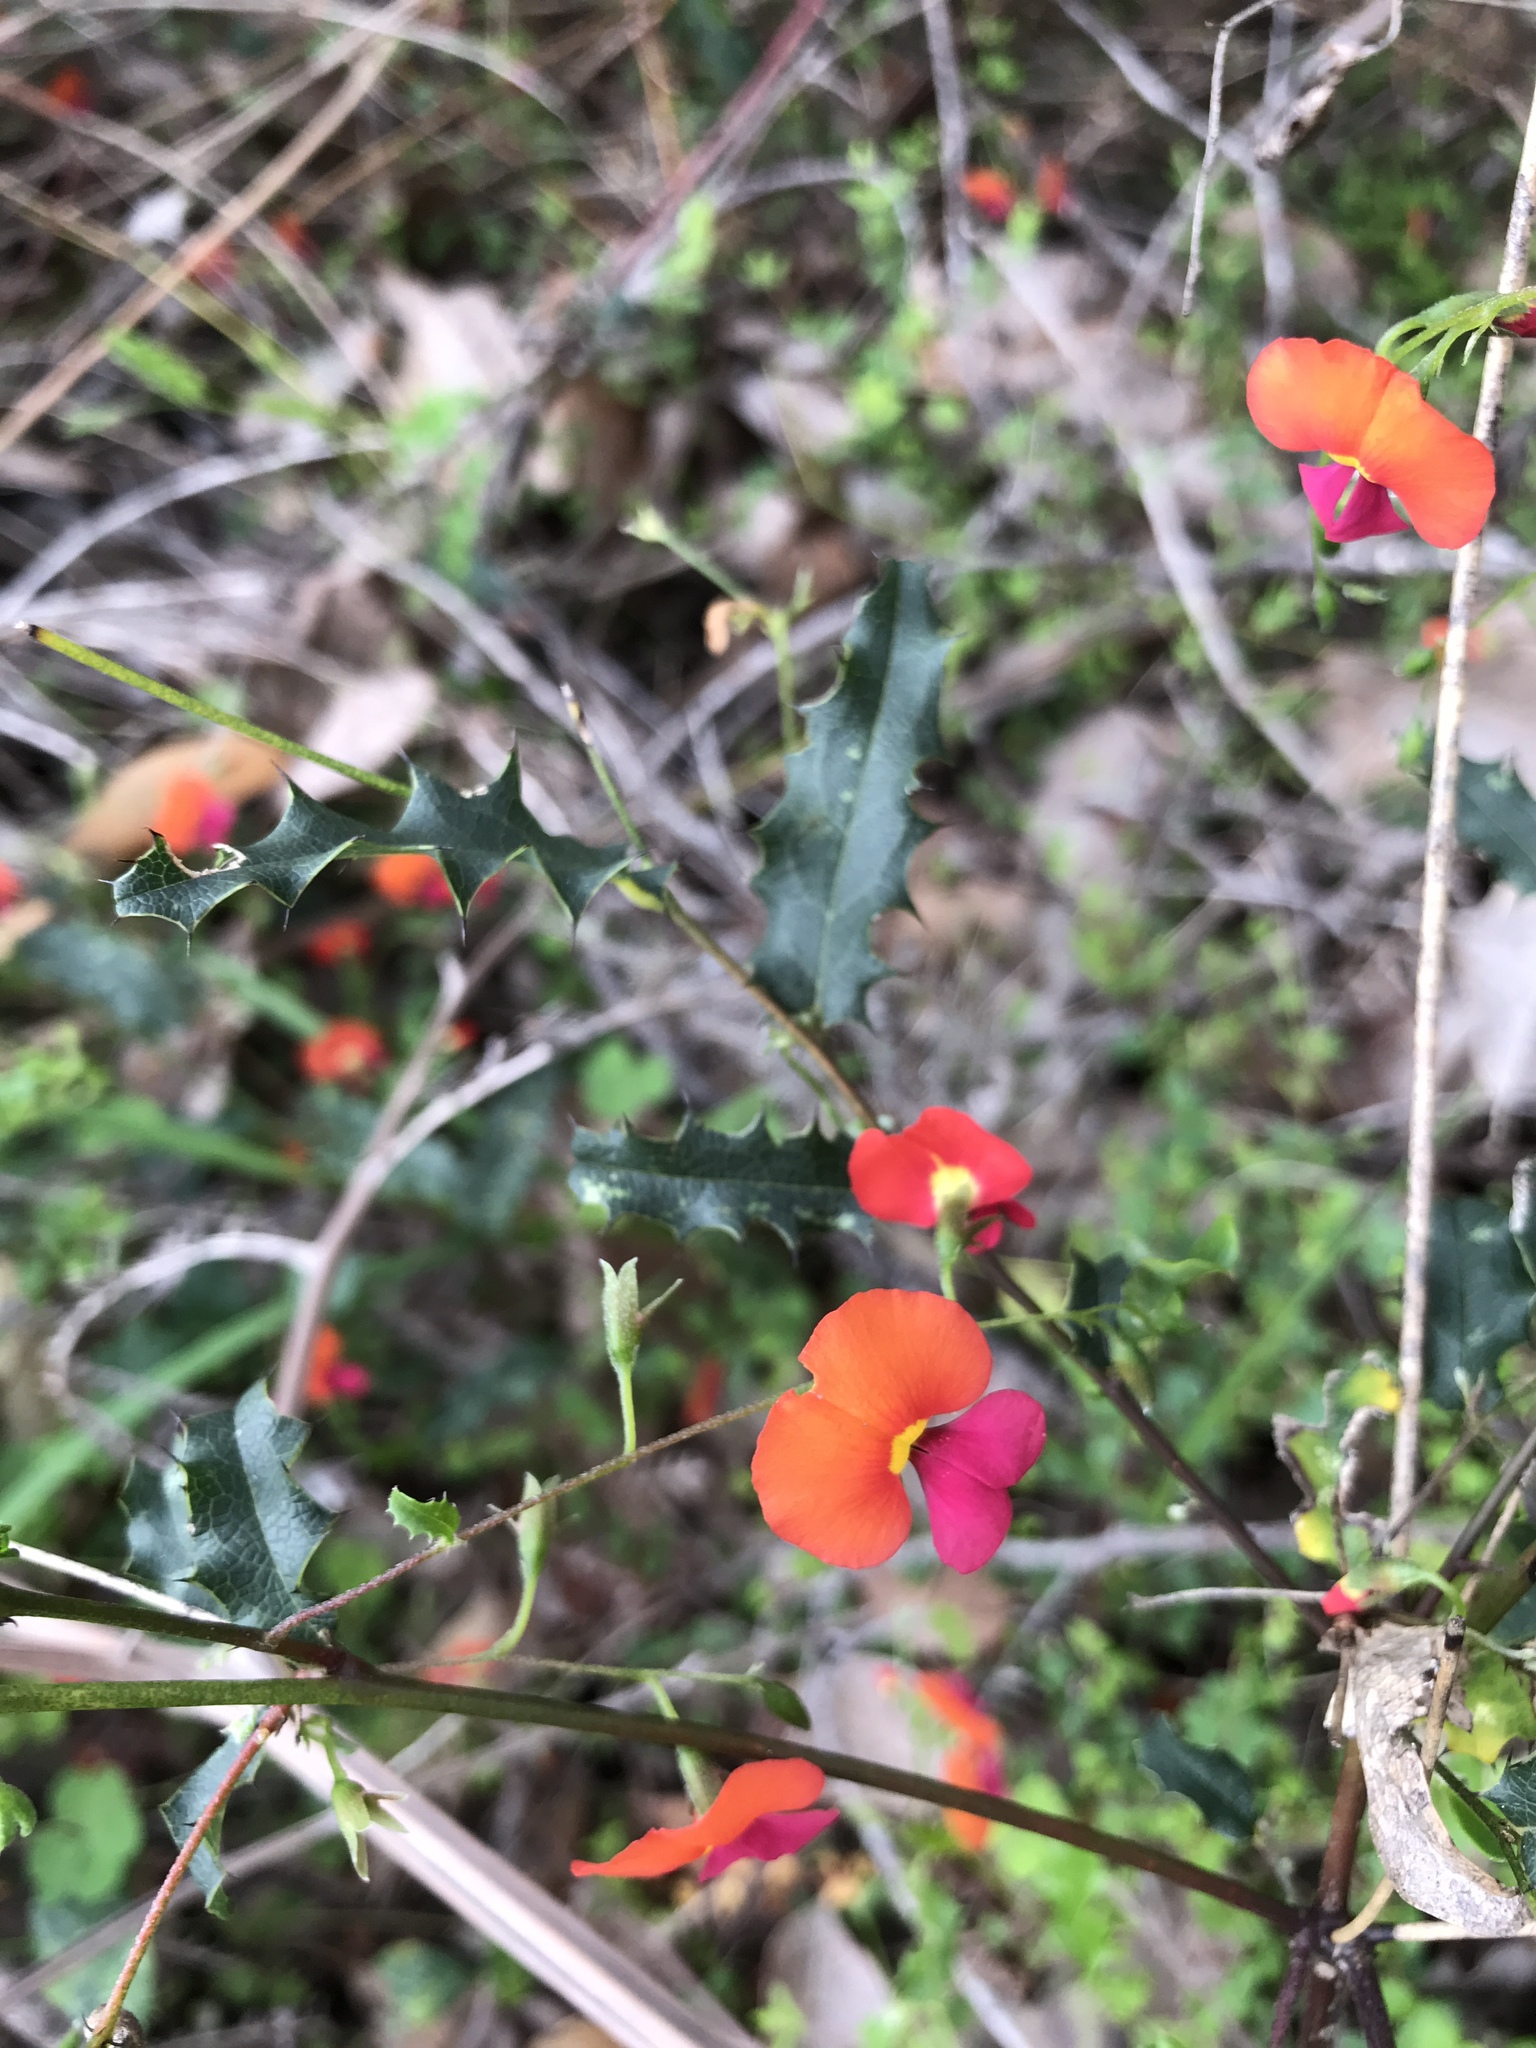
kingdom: Plantae
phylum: Tracheophyta
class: Magnoliopsida
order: Fabales
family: Fabaceae
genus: Chorizema
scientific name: Chorizema ilicifolium
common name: Holly flame-pea
